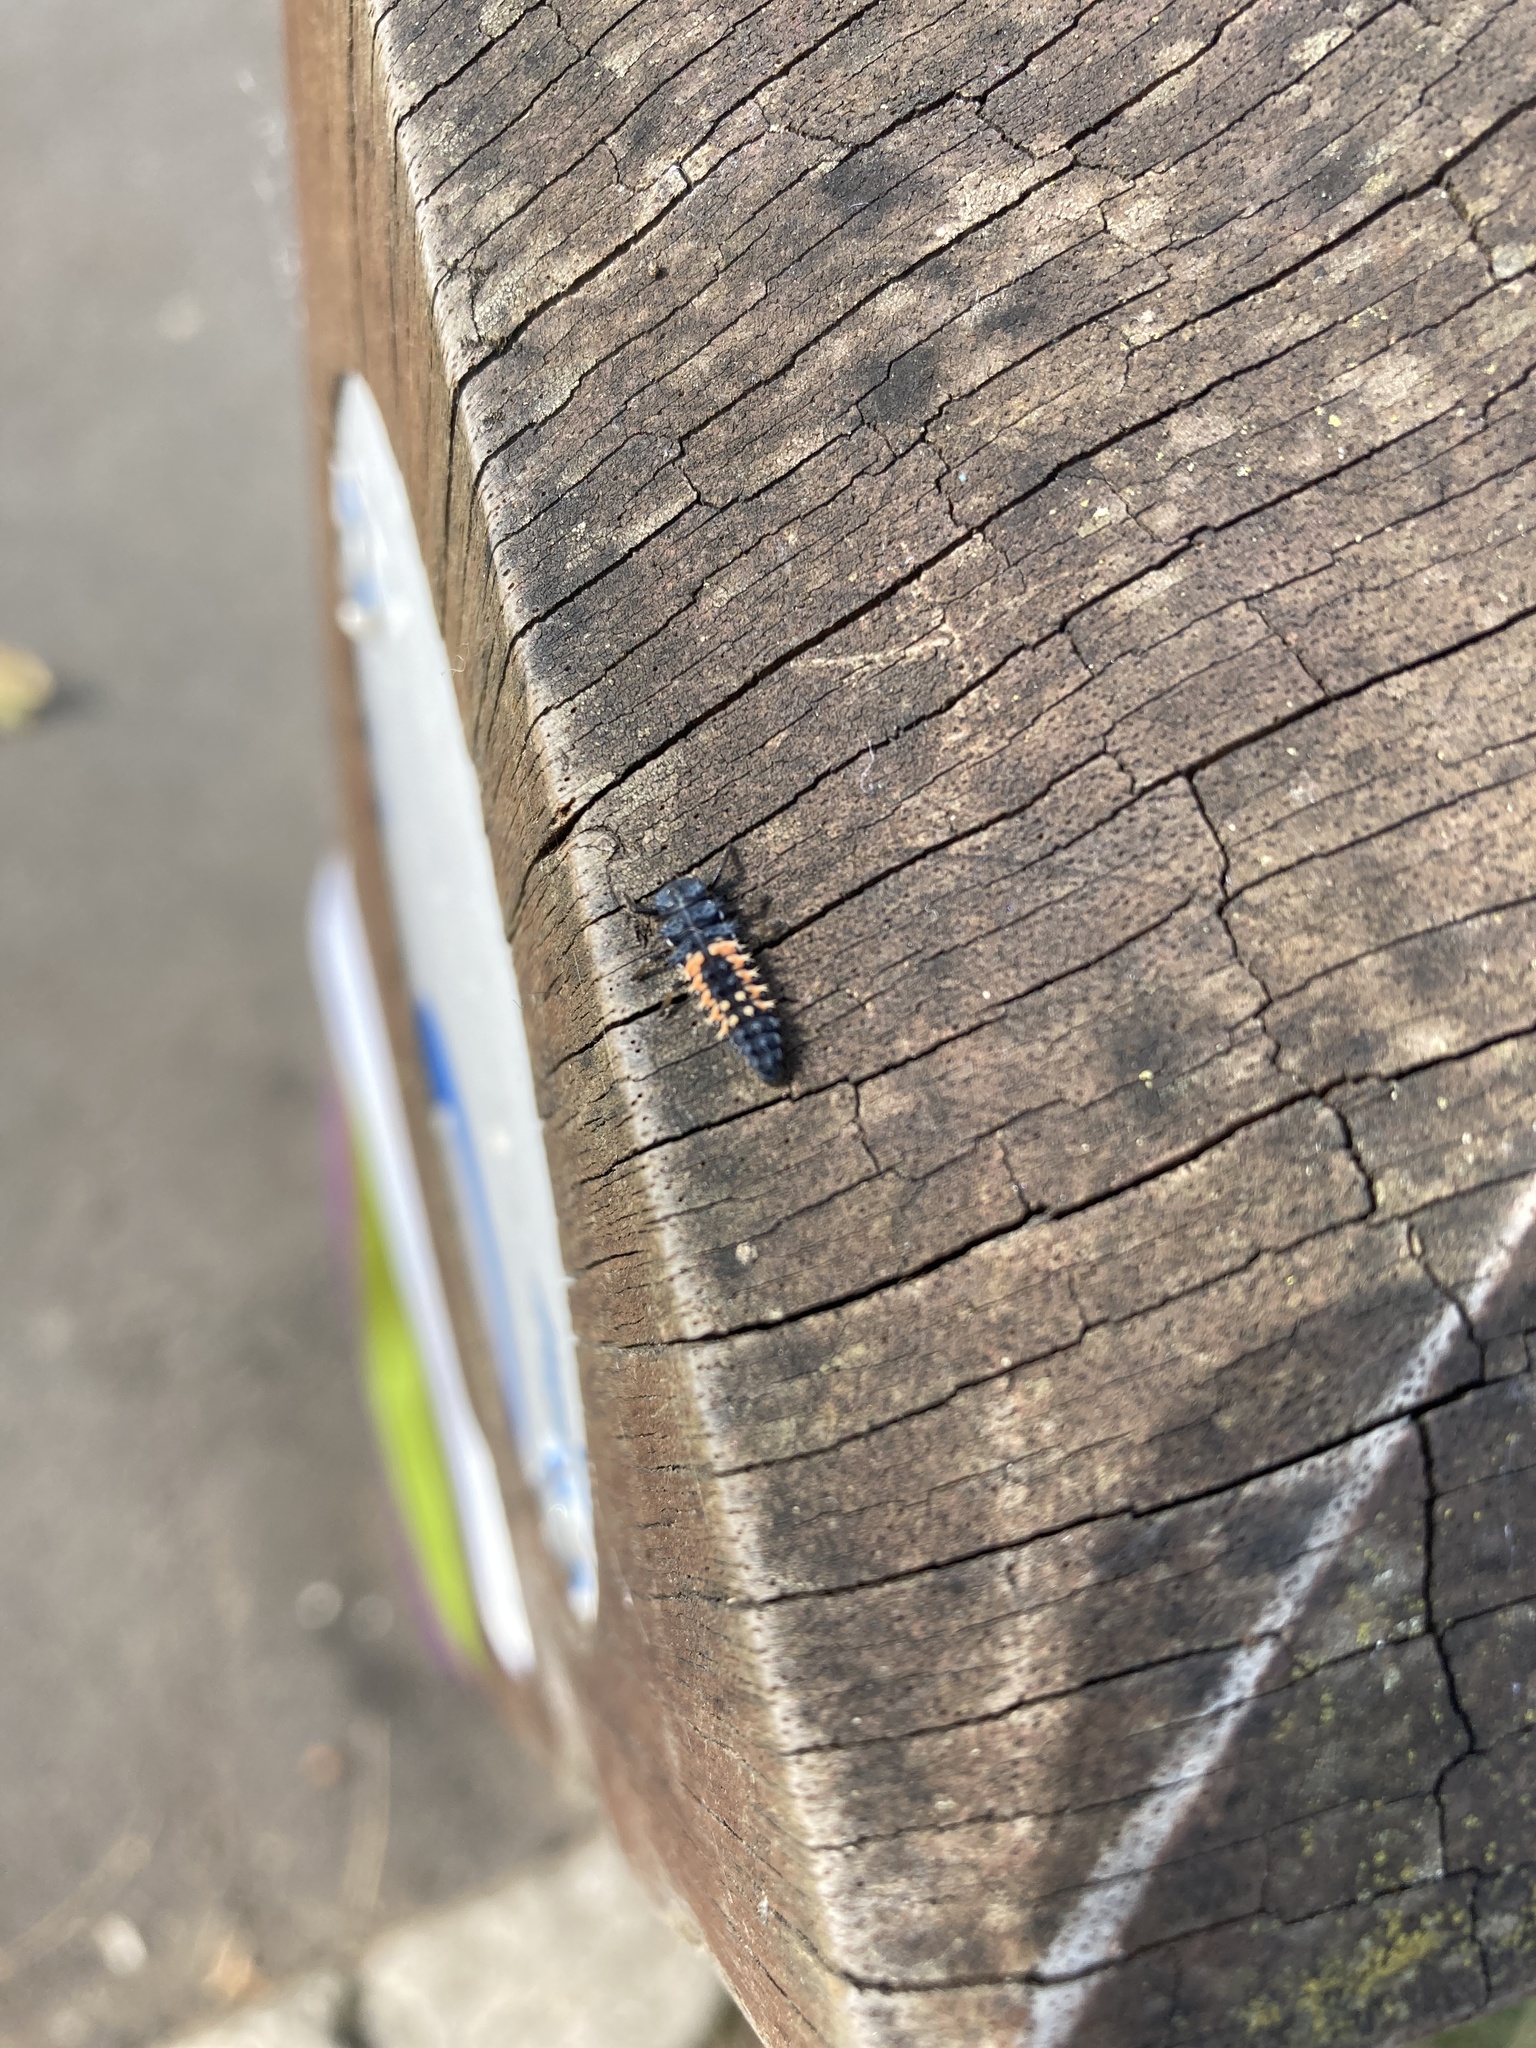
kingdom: Animalia
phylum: Arthropoda
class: Insecta
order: Coleoptera
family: Coccinellidae
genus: Harmonia
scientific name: Harmonia axyridis
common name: Harlequin ladybird
